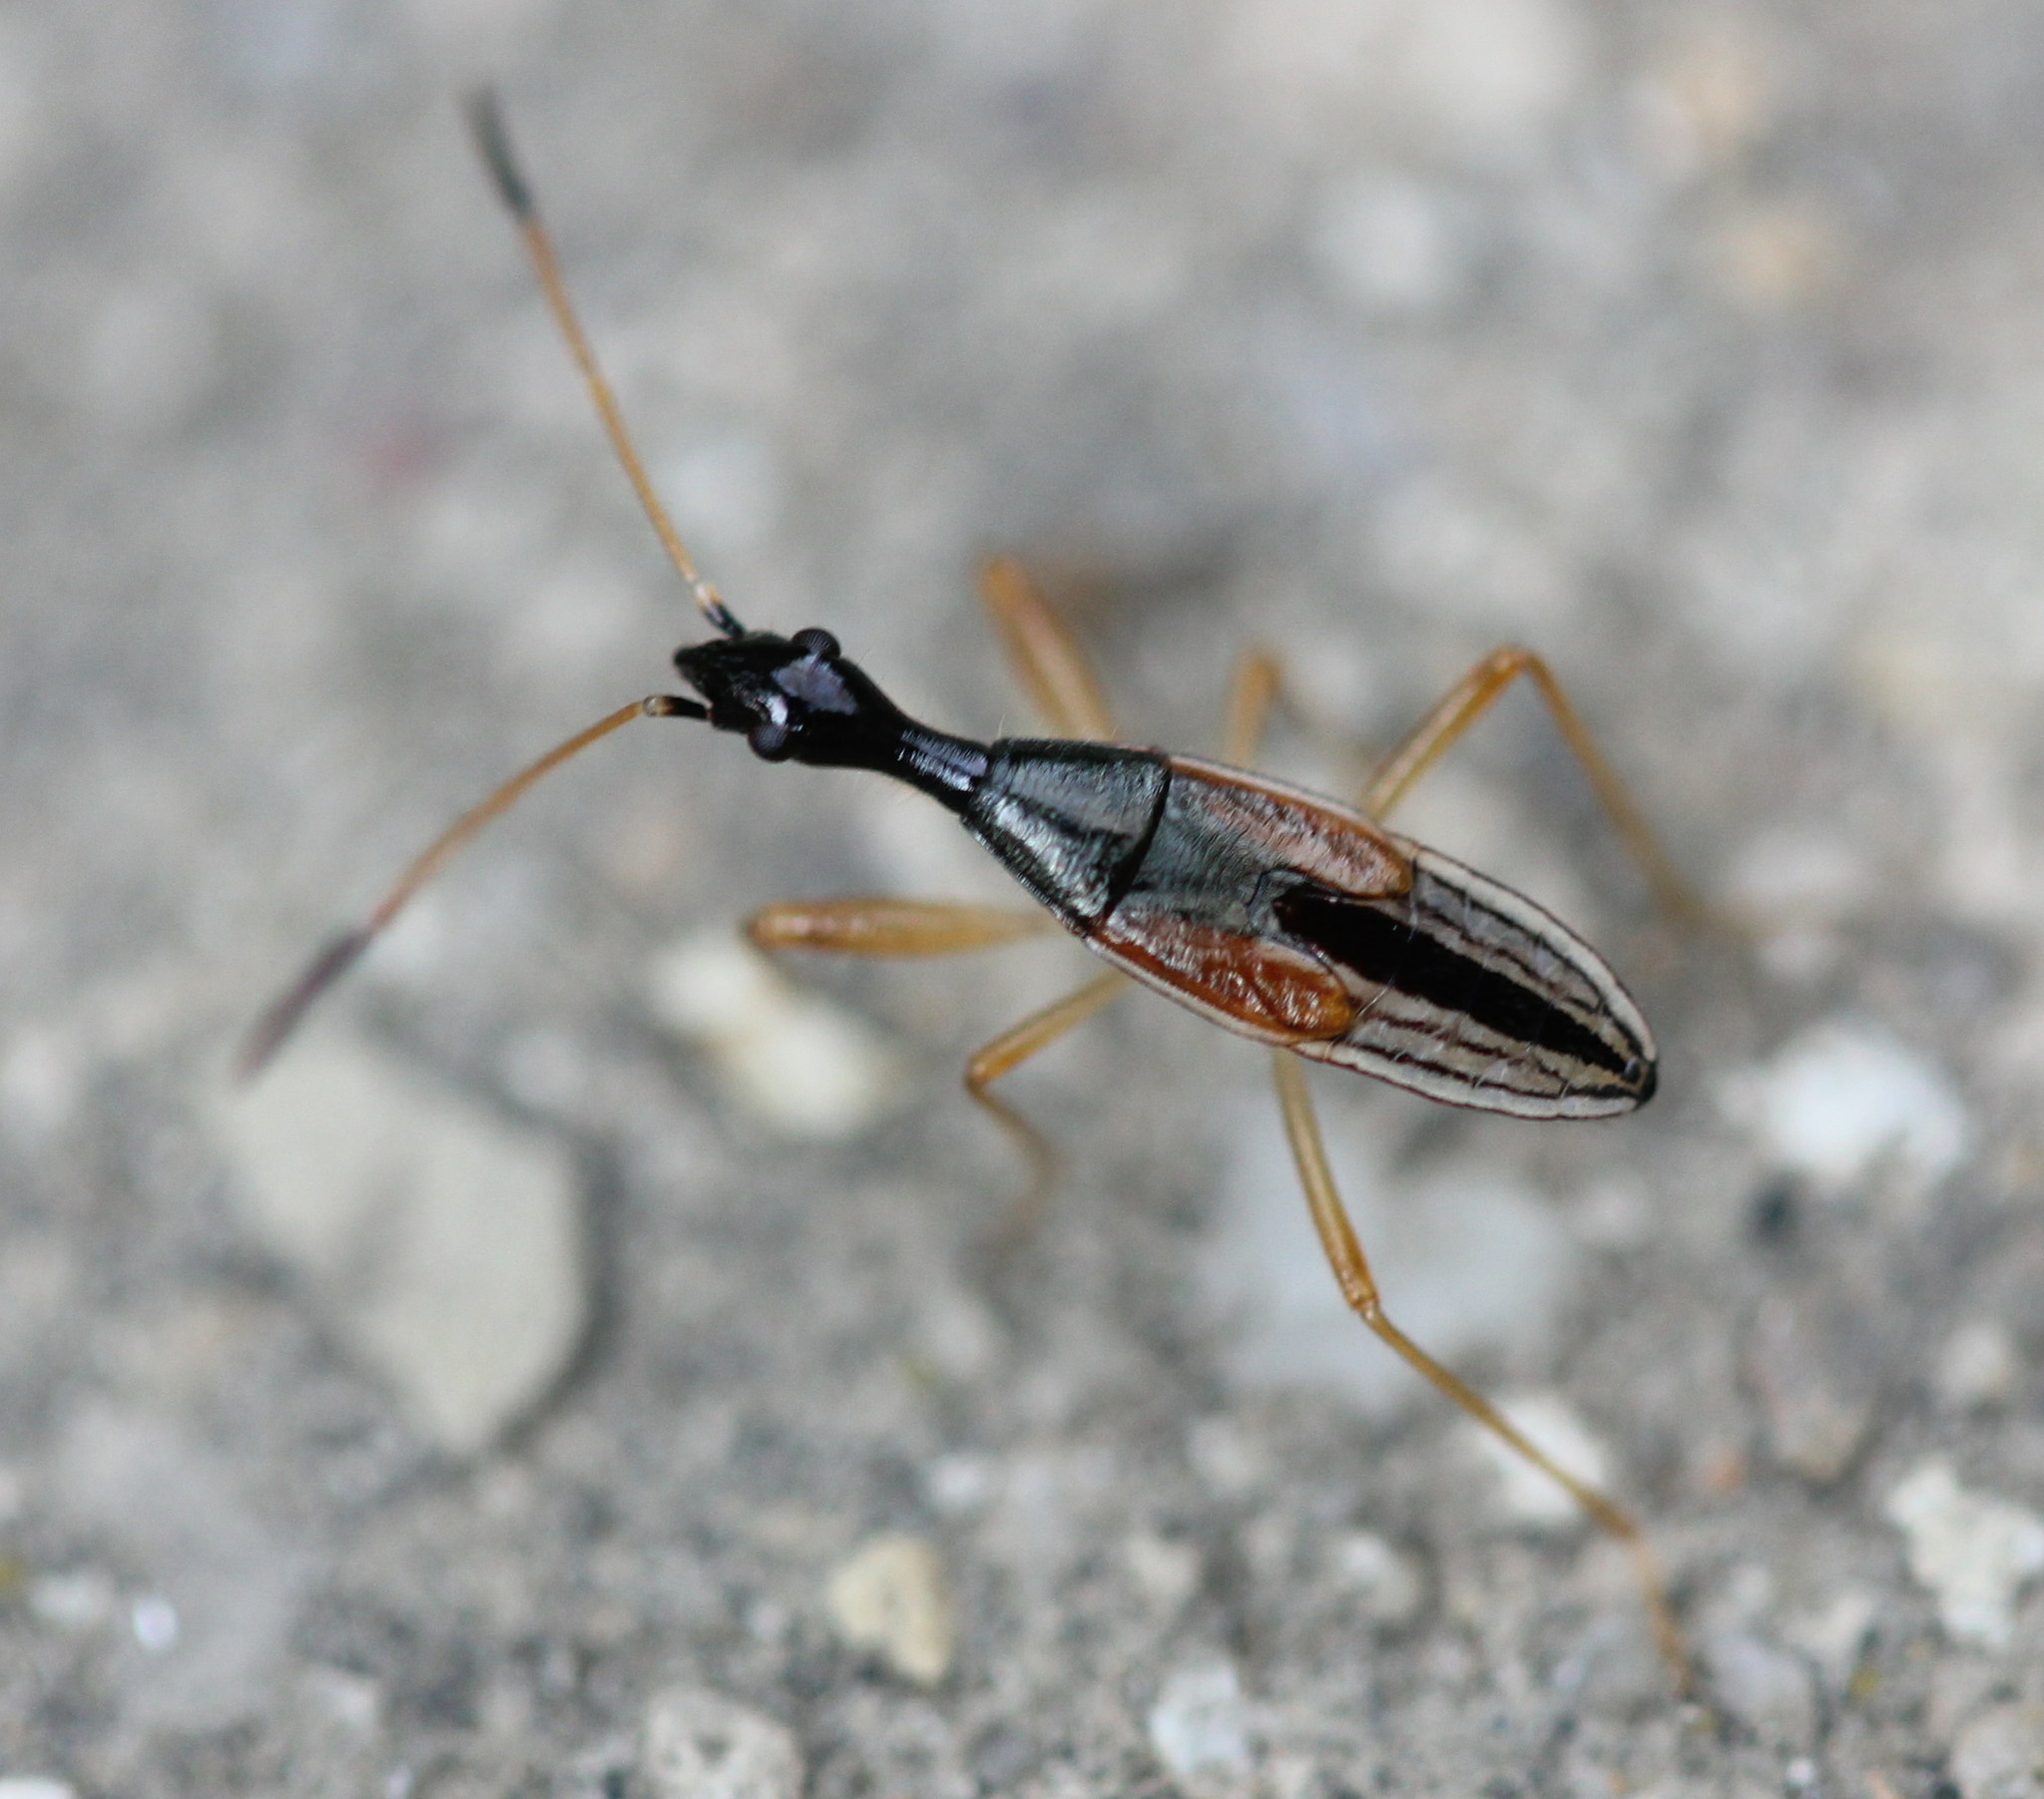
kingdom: Animalia
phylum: Arthropoda
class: Insecta
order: Hemiptera
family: Rhyparochromidae
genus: Myodocha
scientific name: Myodocha serripes
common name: Long-necked seed bug
